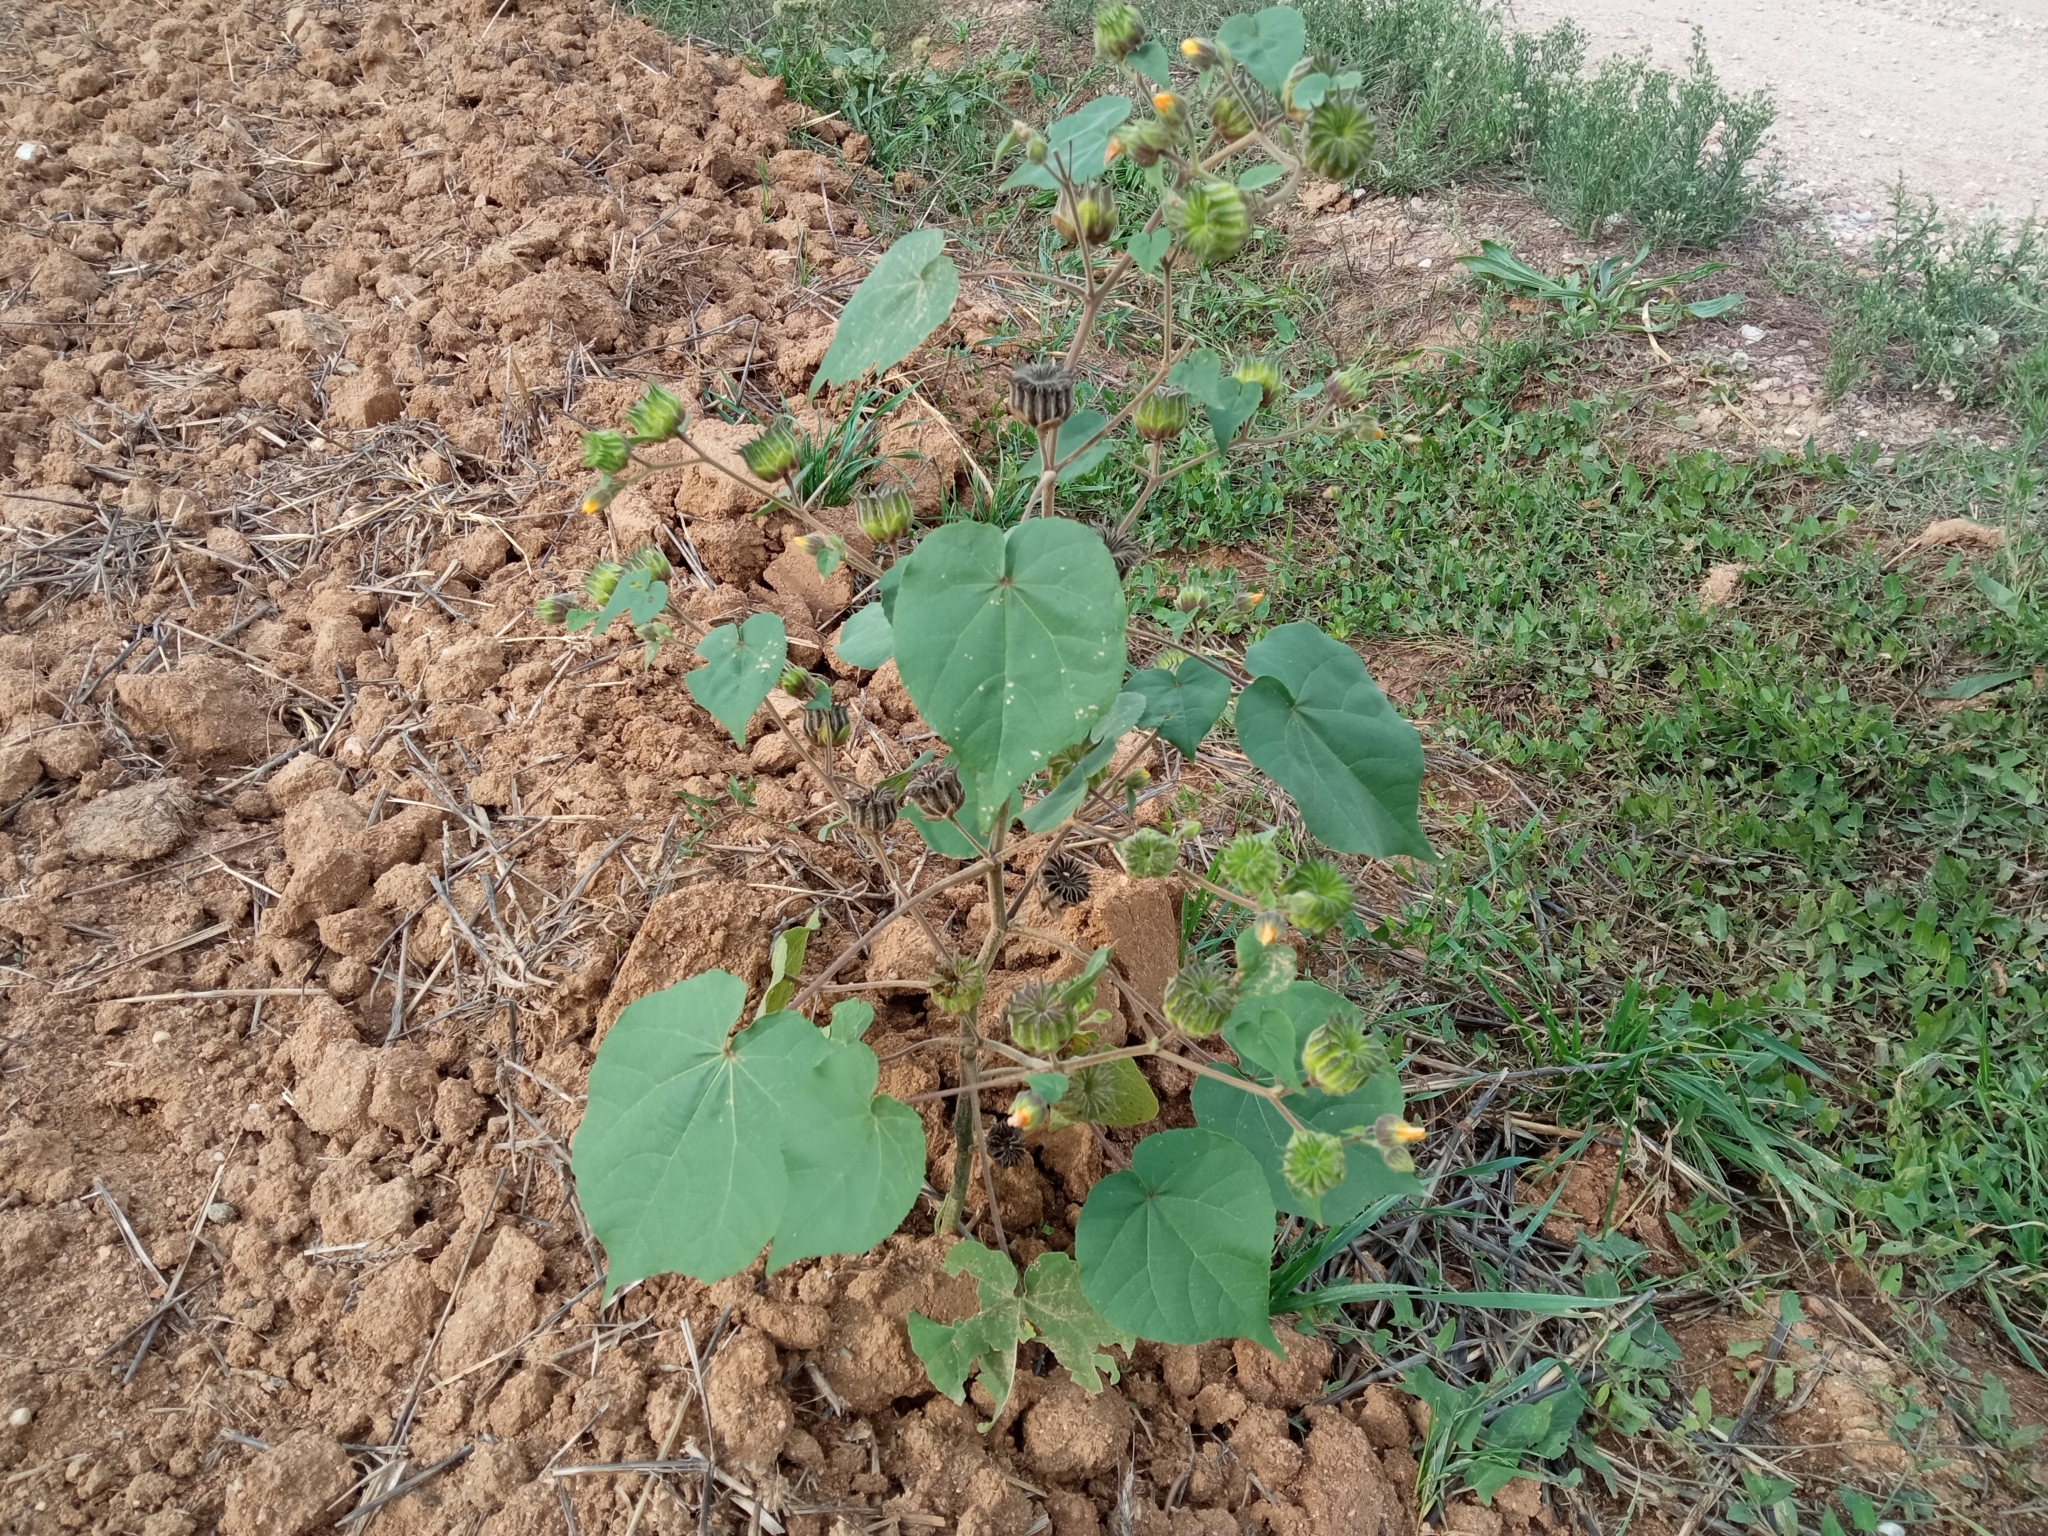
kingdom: Plantae
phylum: Tracheophyta
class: Magnoliopsida
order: Malvales
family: Malvaceae
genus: Abutilon
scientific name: Abutilon theophrasti
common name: Velvetleaf
